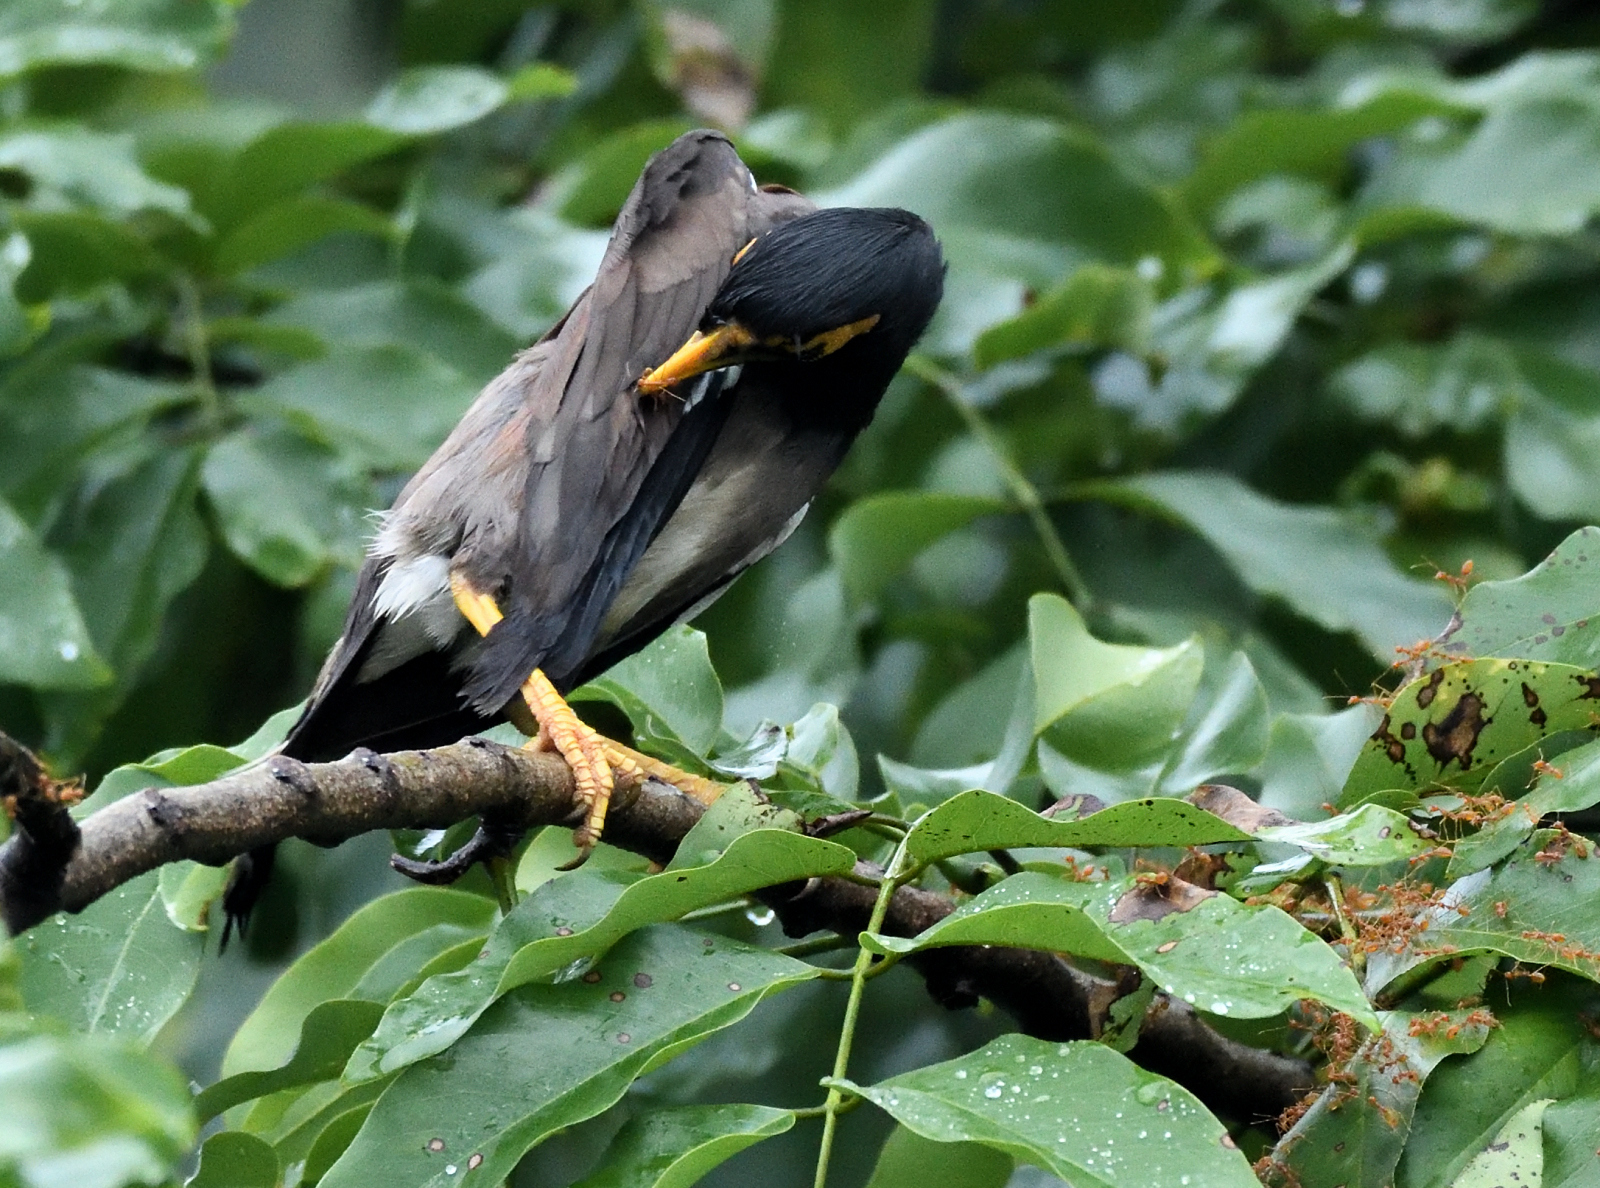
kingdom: Animalia
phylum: Chordata
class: Aves
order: Passeriformes
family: Sturnidae
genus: Acridotheres
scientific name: Acridotheres tristis
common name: Common myna
